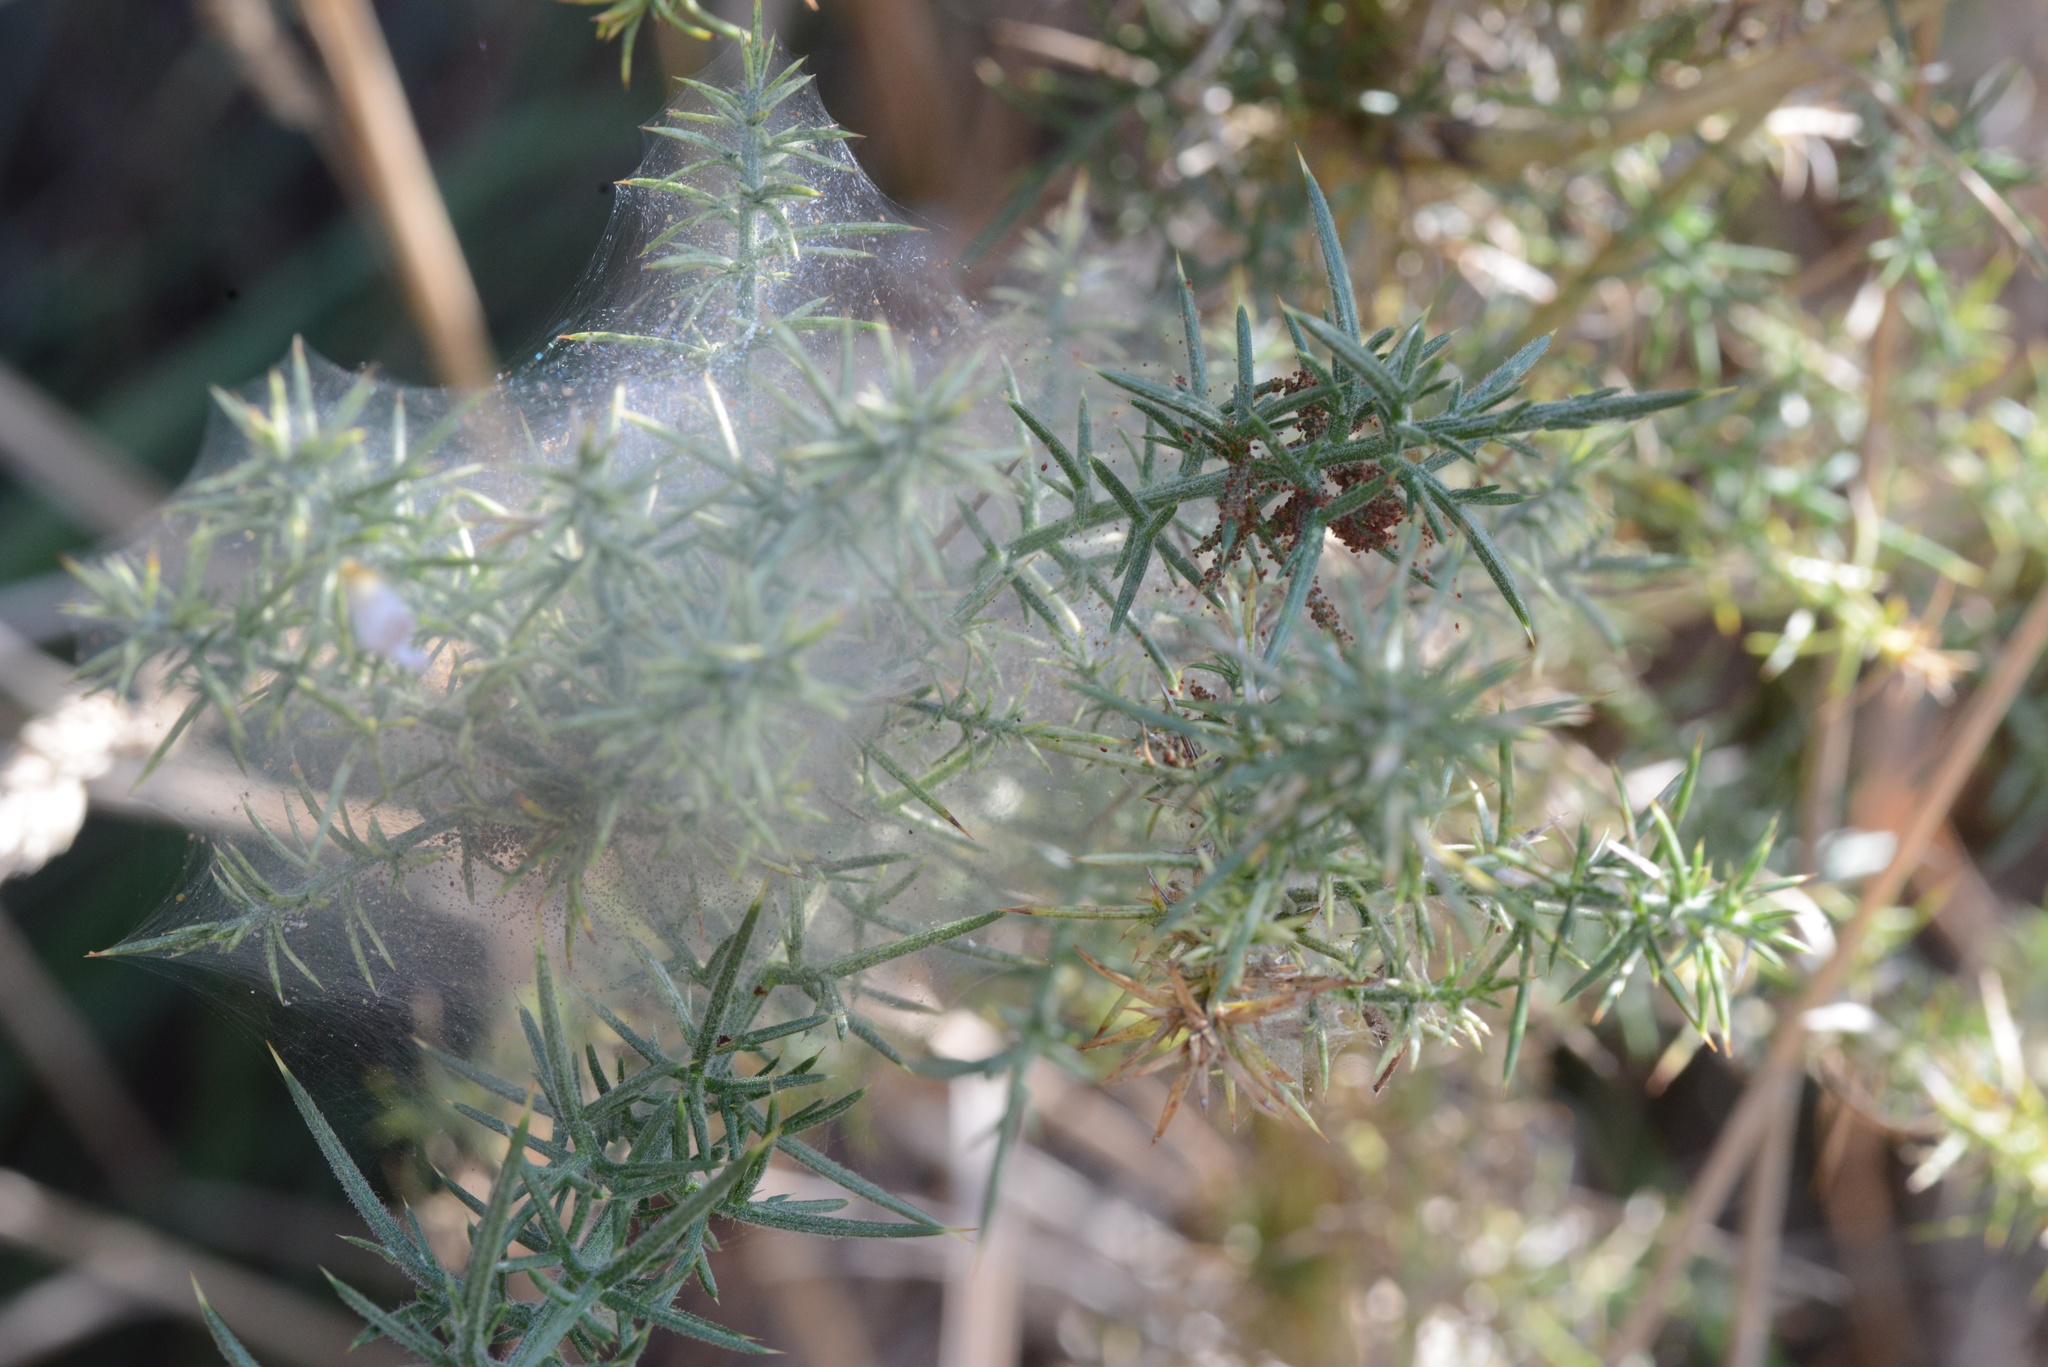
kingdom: Animalia
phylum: Arthropoda
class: Arachnida
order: Trombidiformes
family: Tetranychidae
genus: Tetranychus
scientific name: Tetranychus lintearius
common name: Gorse spider mite
